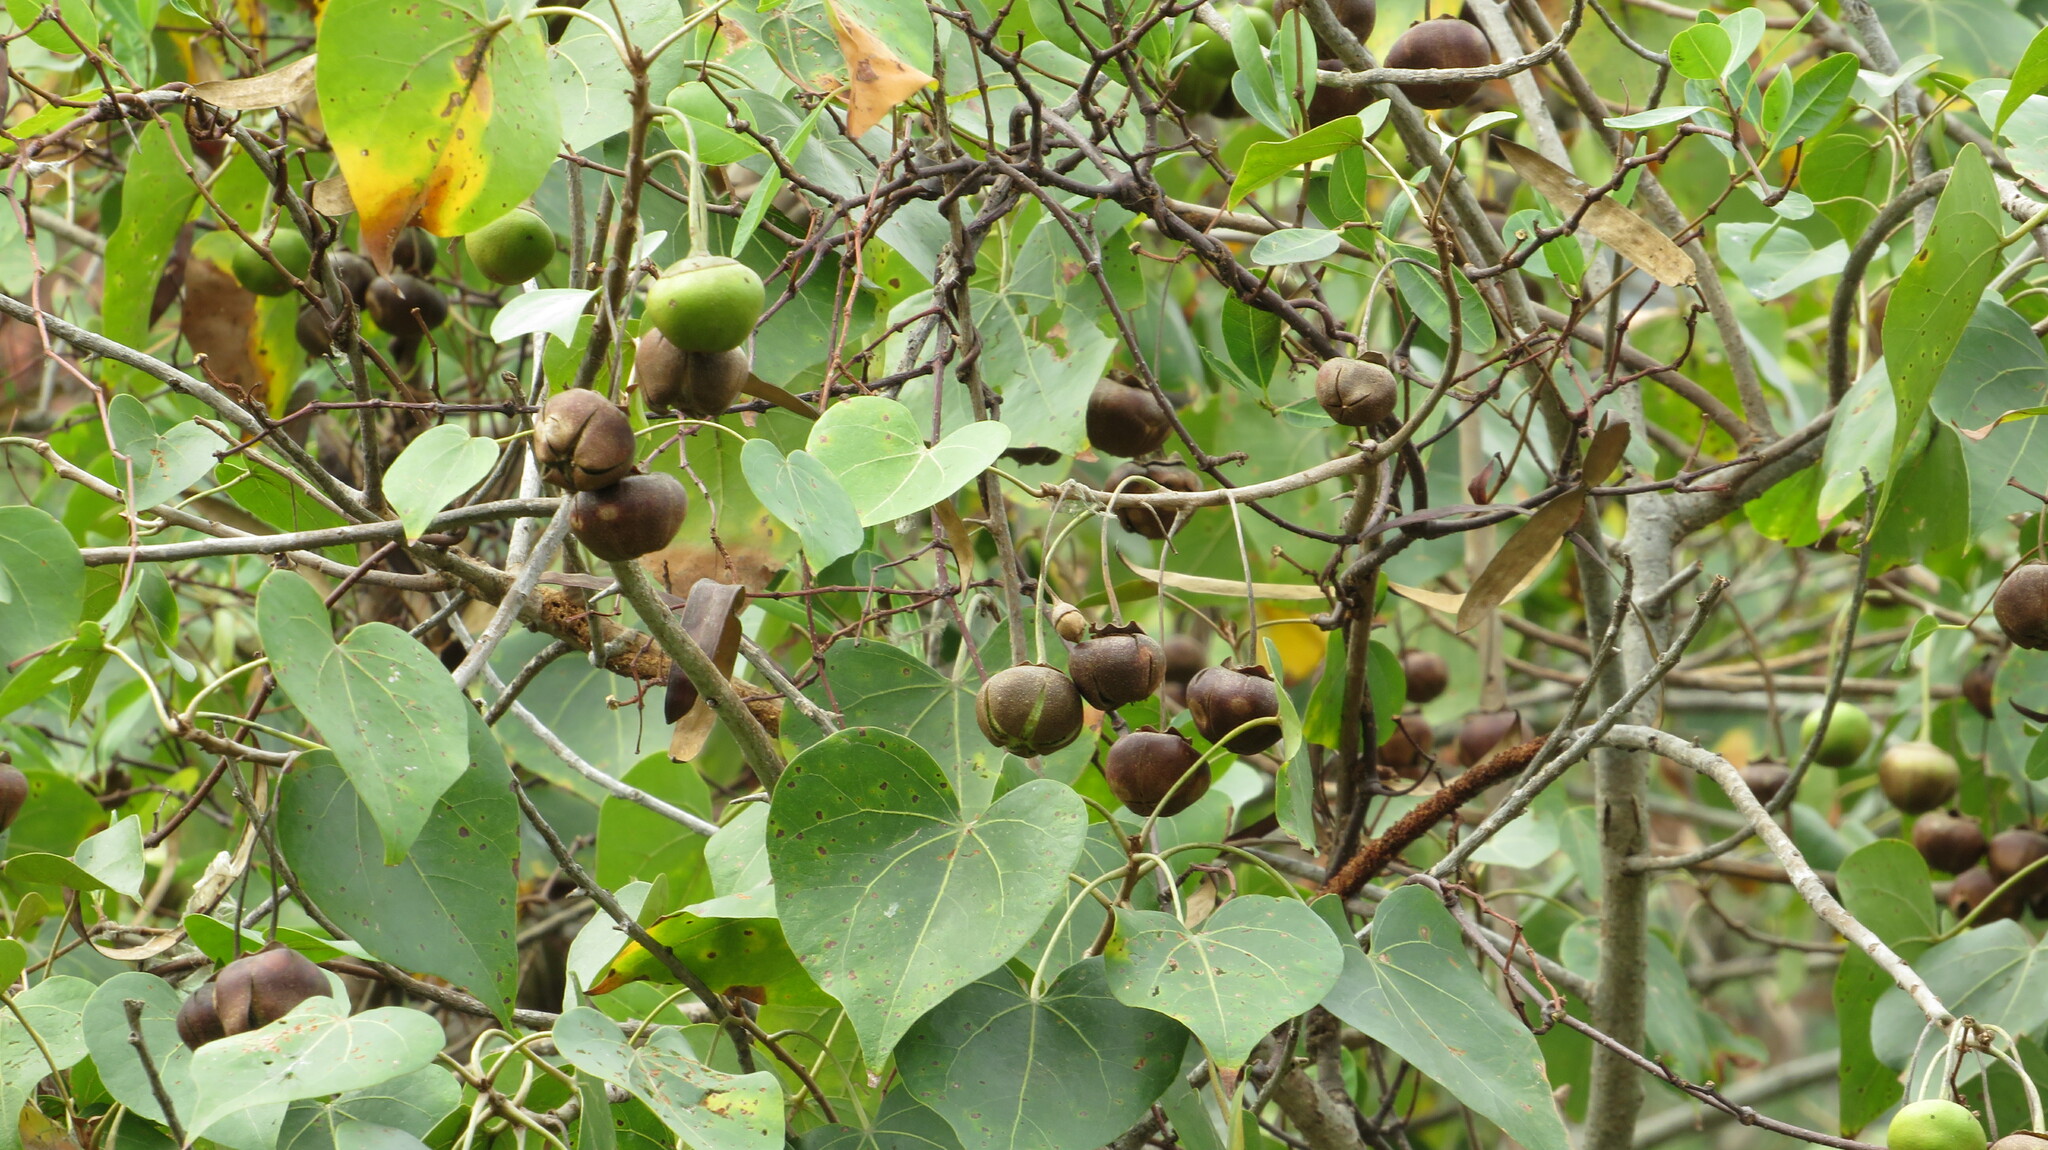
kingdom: Plantae
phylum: Tracheophyta
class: Magnoliopsida
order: Malvales
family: Malvaceae
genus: Thespesia
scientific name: Thespesia populnea
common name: Seaside mahoe
